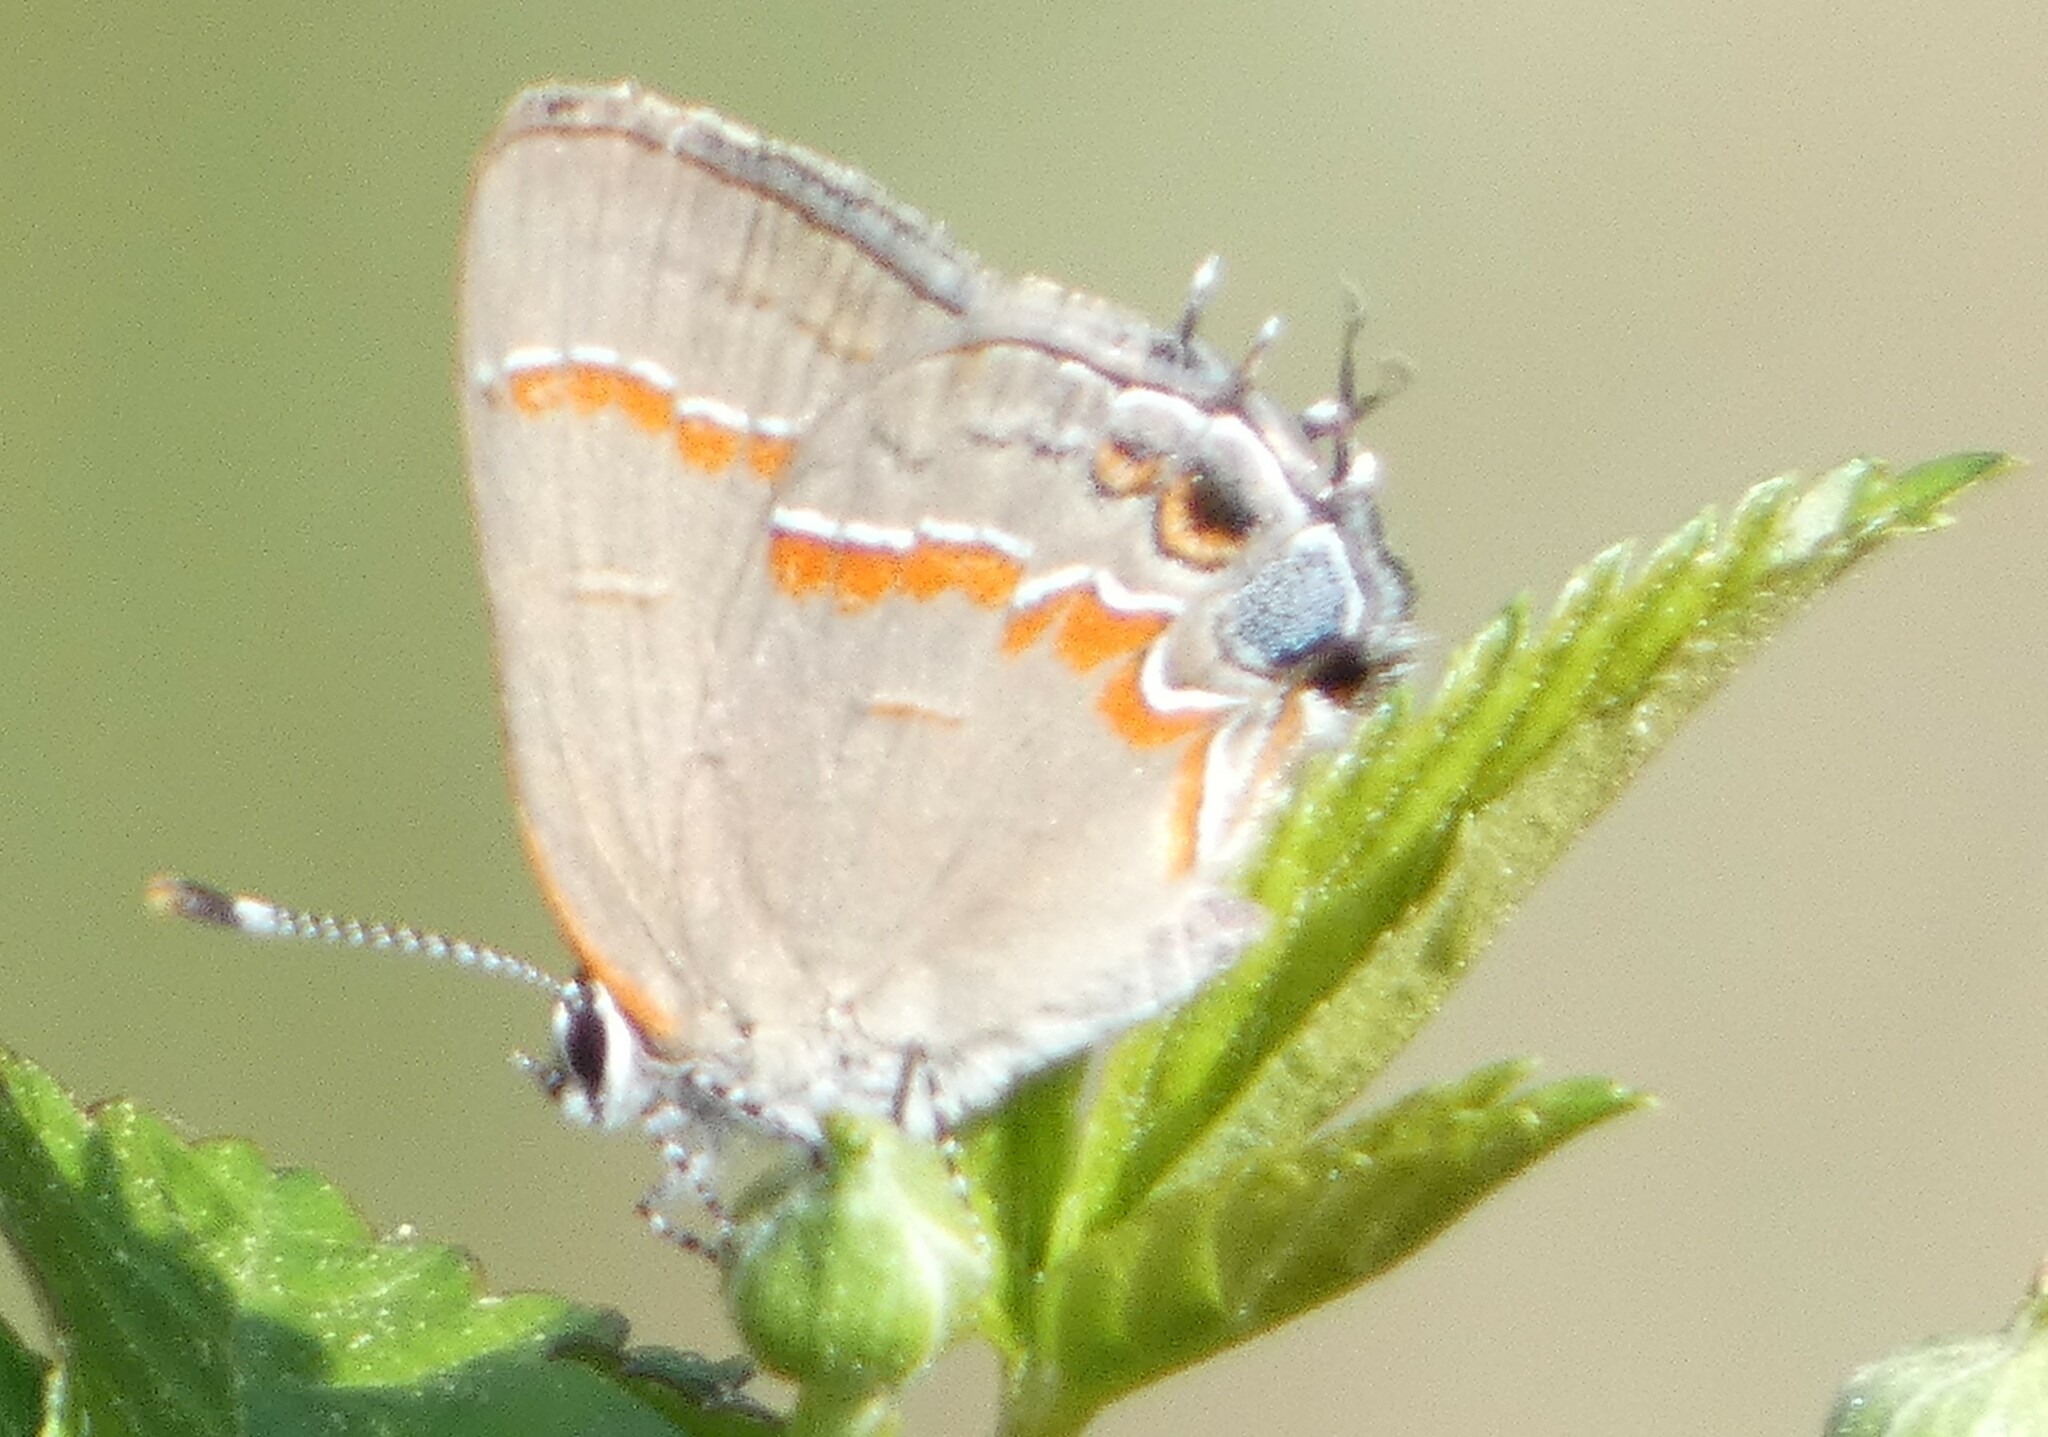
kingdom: Animalia
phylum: Arthropoda
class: Insecta
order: Lepidoptera
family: Lycaenidae
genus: Calycopis
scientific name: Calycopis cecrops
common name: Red-banded hairstreak
